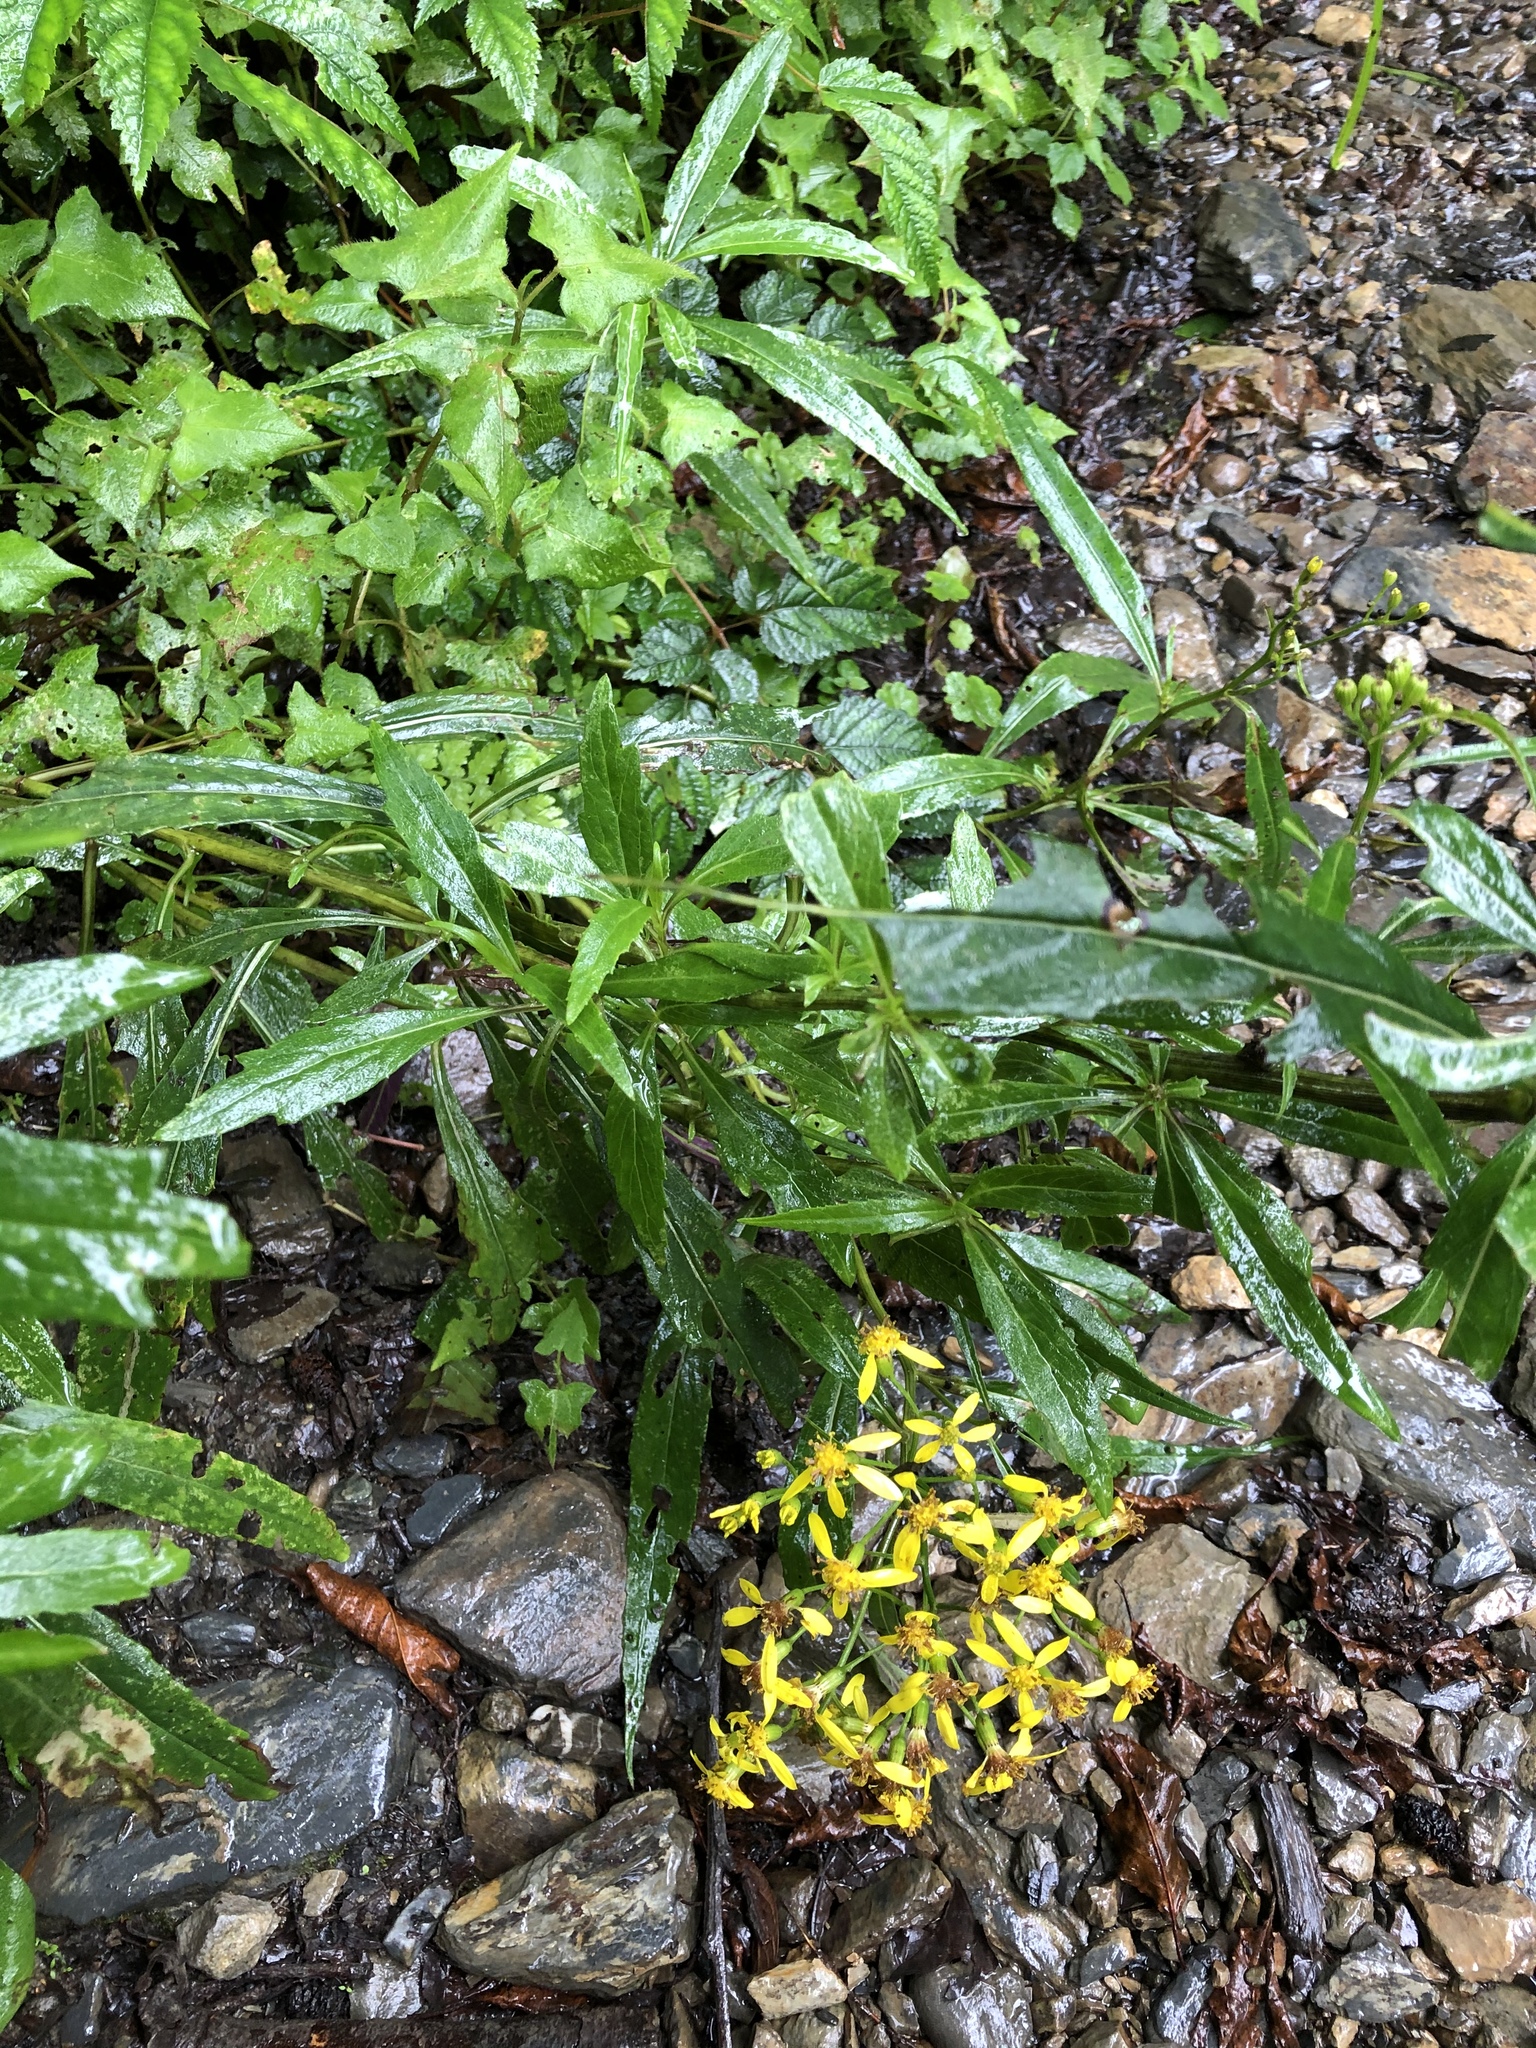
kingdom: Plantae
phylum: Tracheophyta
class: Magnoliopsida
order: Asterales
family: Asteraceae
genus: Jacobaea
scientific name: Jacobaea morrisonensis
